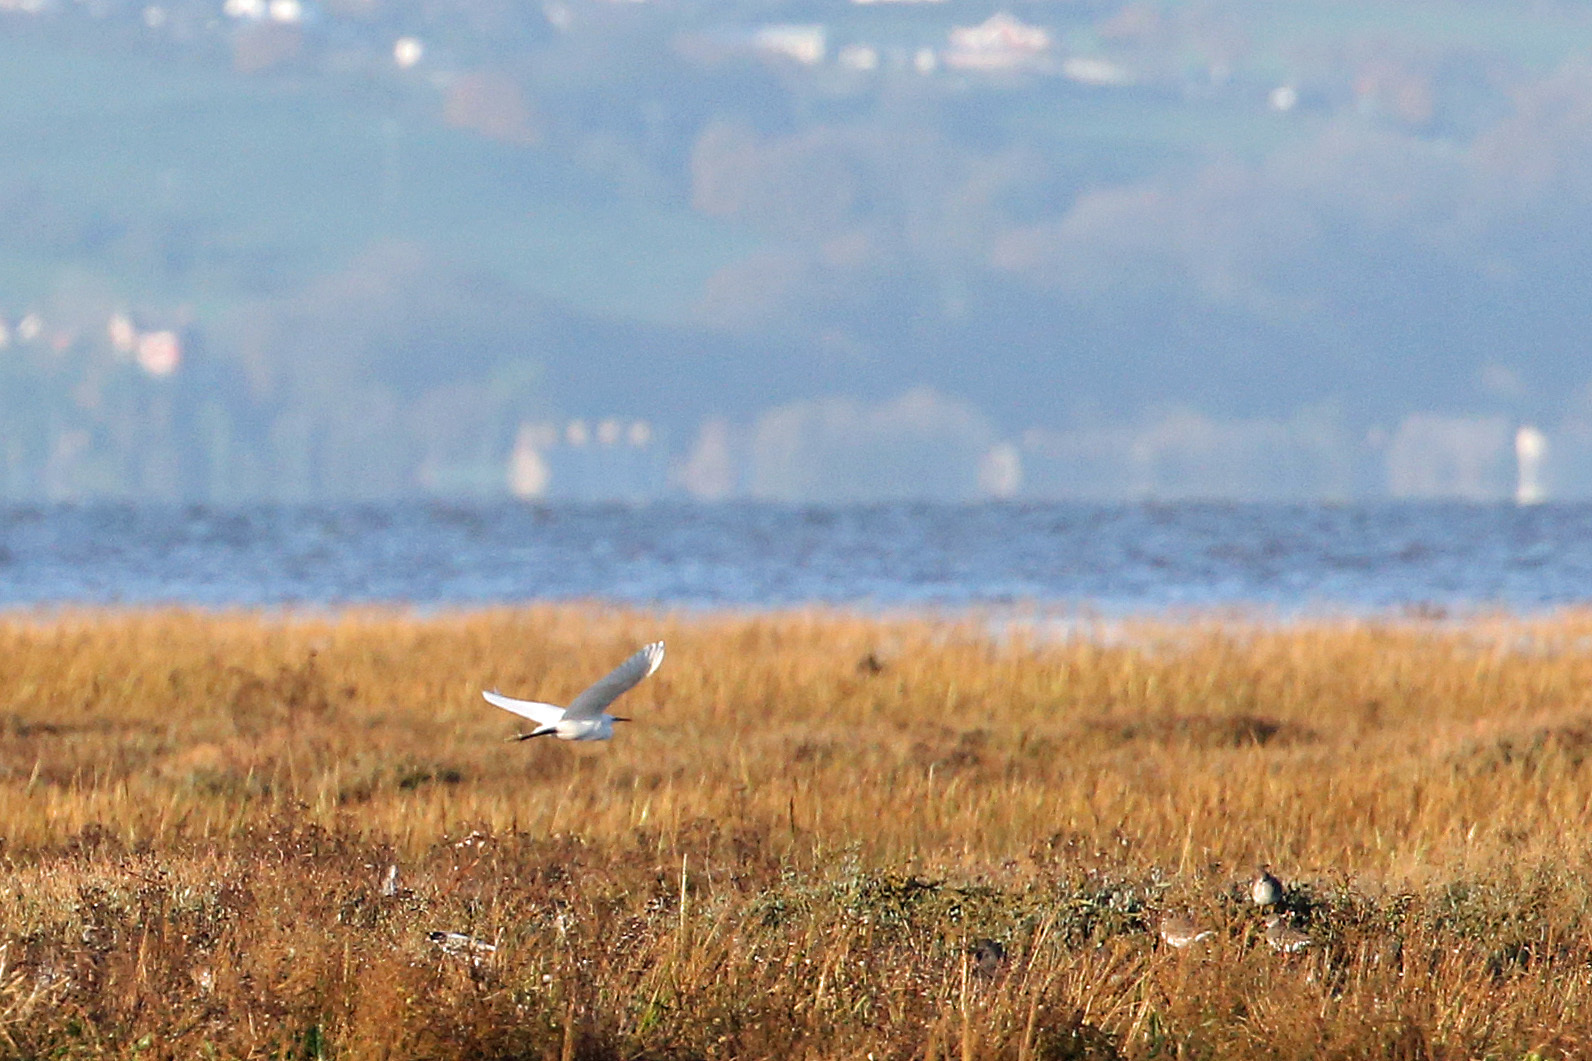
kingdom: Animalia
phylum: Chordata
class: Aves
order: Pelecaniformes
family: Ardeidae
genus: Egretta
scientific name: Egretta garzetta
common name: Little egret
